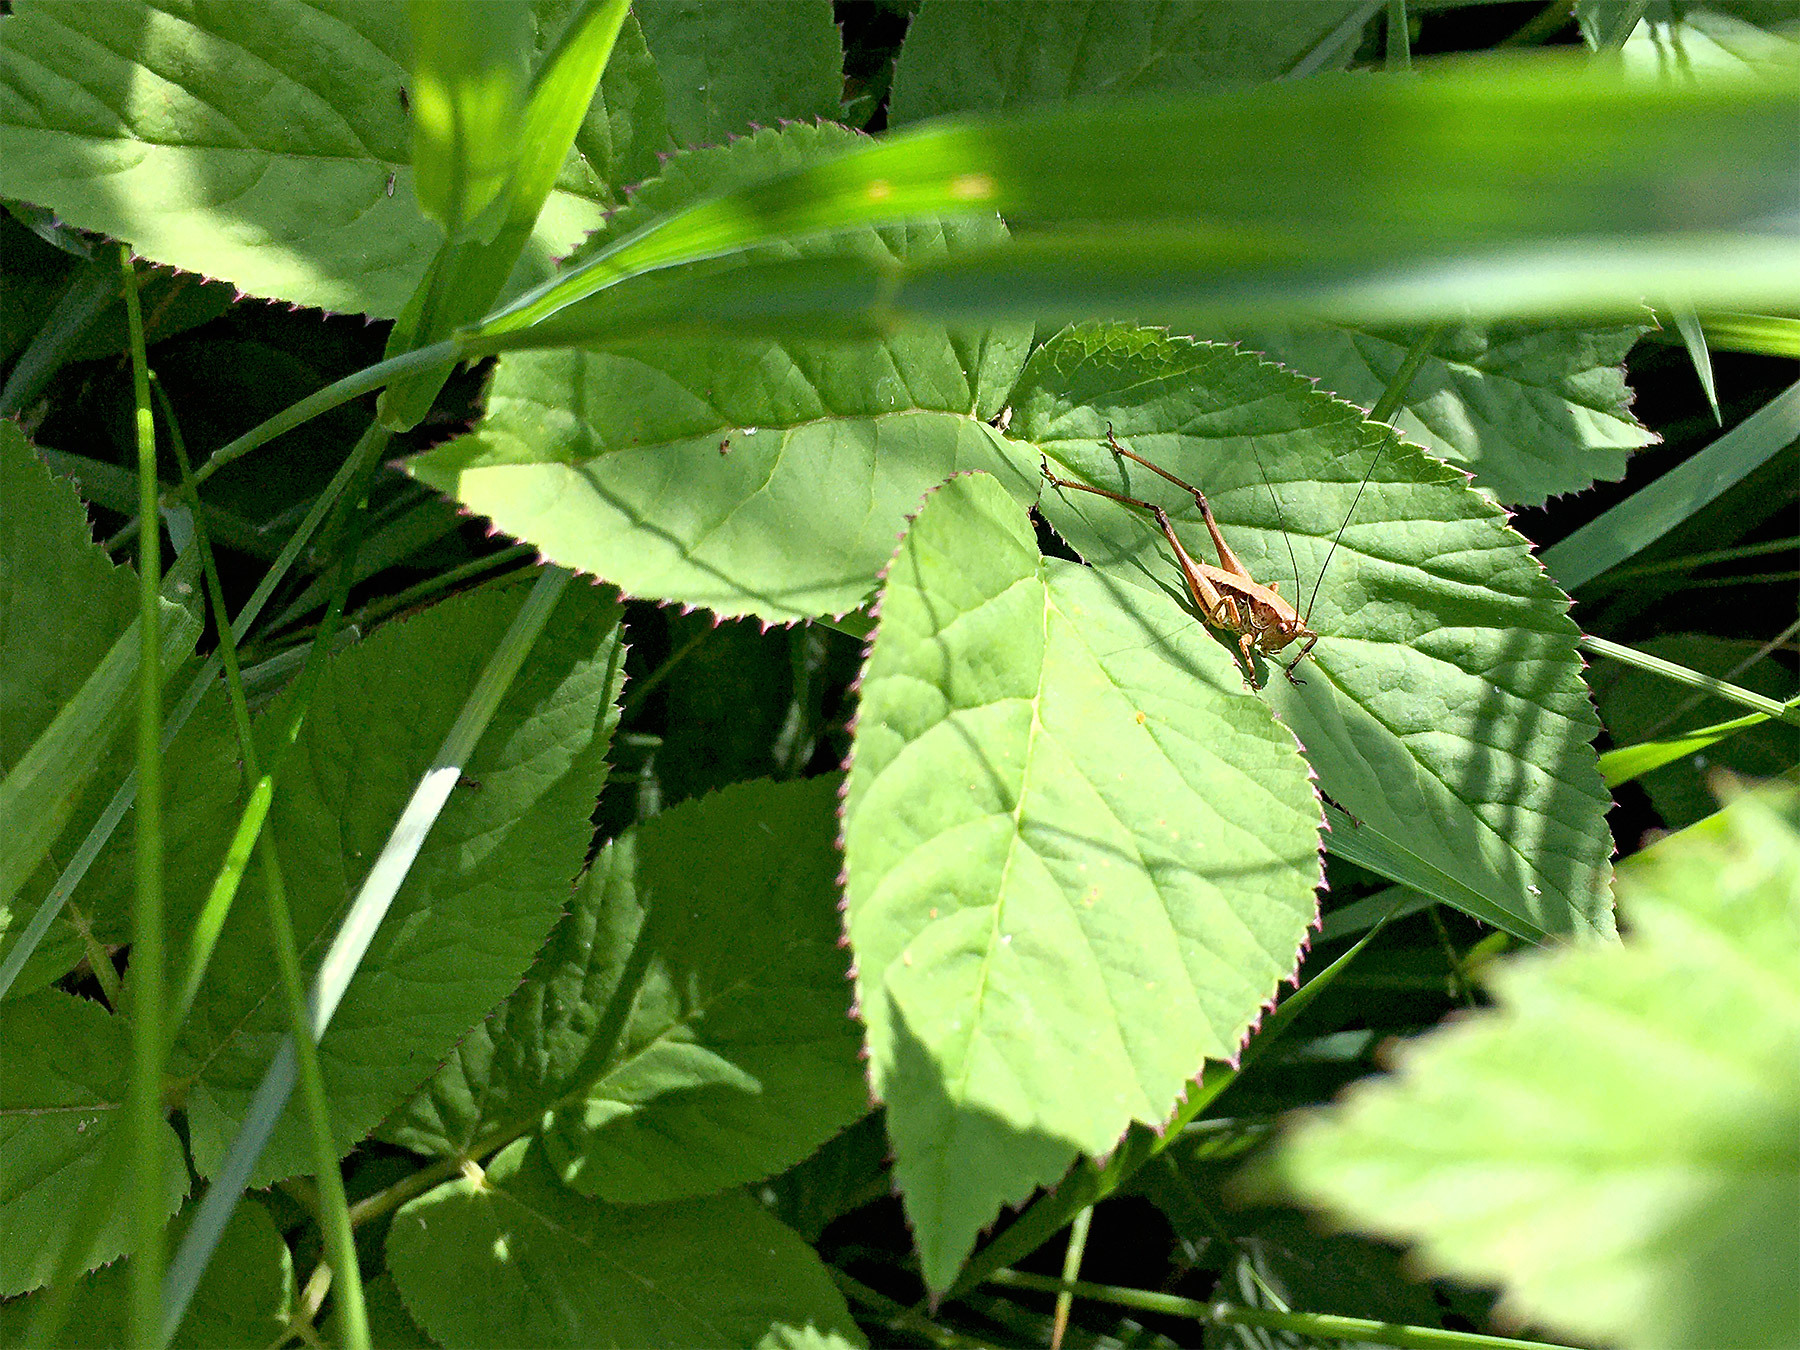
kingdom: Animalia
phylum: Arthropoda
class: Insecta
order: Orthoptera
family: Tettigoniidae
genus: Pholidoptera
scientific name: Pholidoptera griseoaptera
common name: Dark bush-cricket
